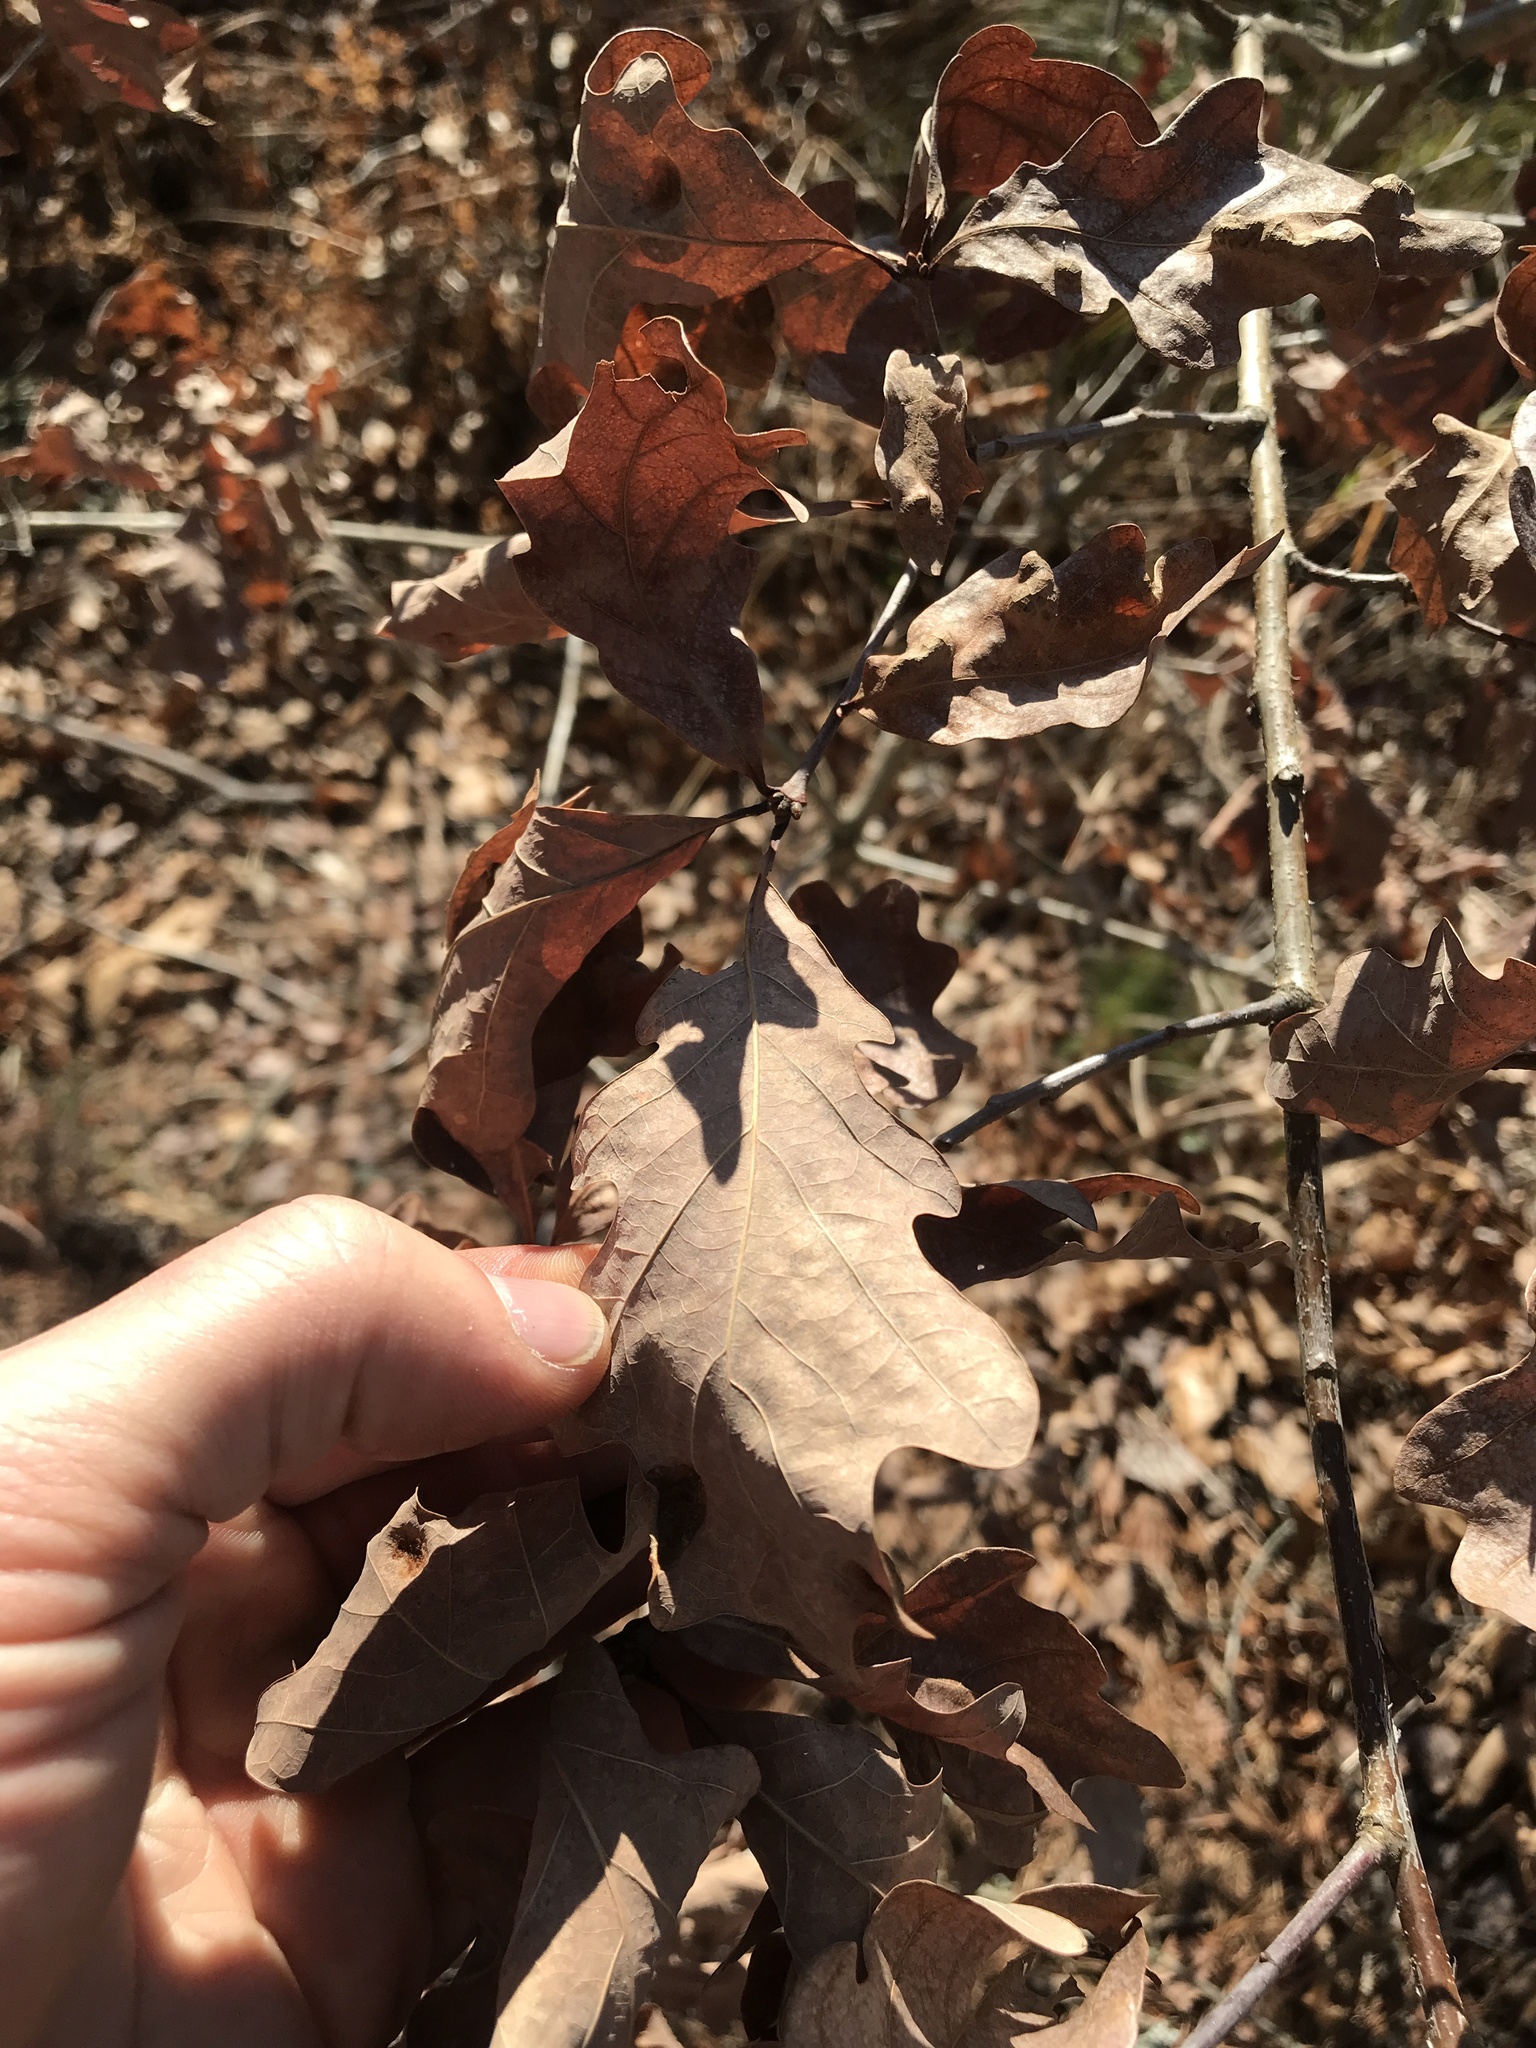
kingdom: Plantae
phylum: Tracheophyta
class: Magnoliopsida
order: Fagales
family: Fagaceae
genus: Quercus
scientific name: Quercus alba
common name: White oak
